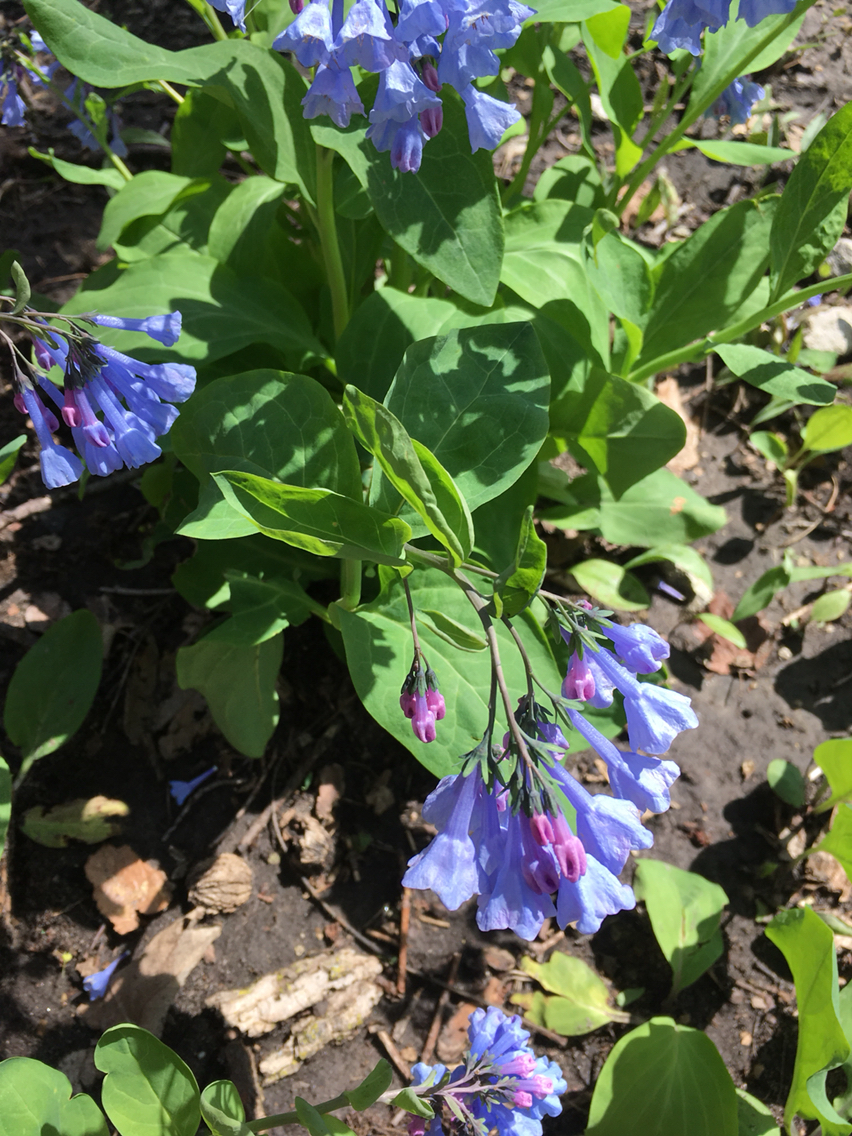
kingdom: Plantae
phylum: Tracheophyta
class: Magnoliopsida
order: Boraginales
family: Boraginaceae
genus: Mertensia
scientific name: Mertensia virginica
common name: Virginia bluebells
